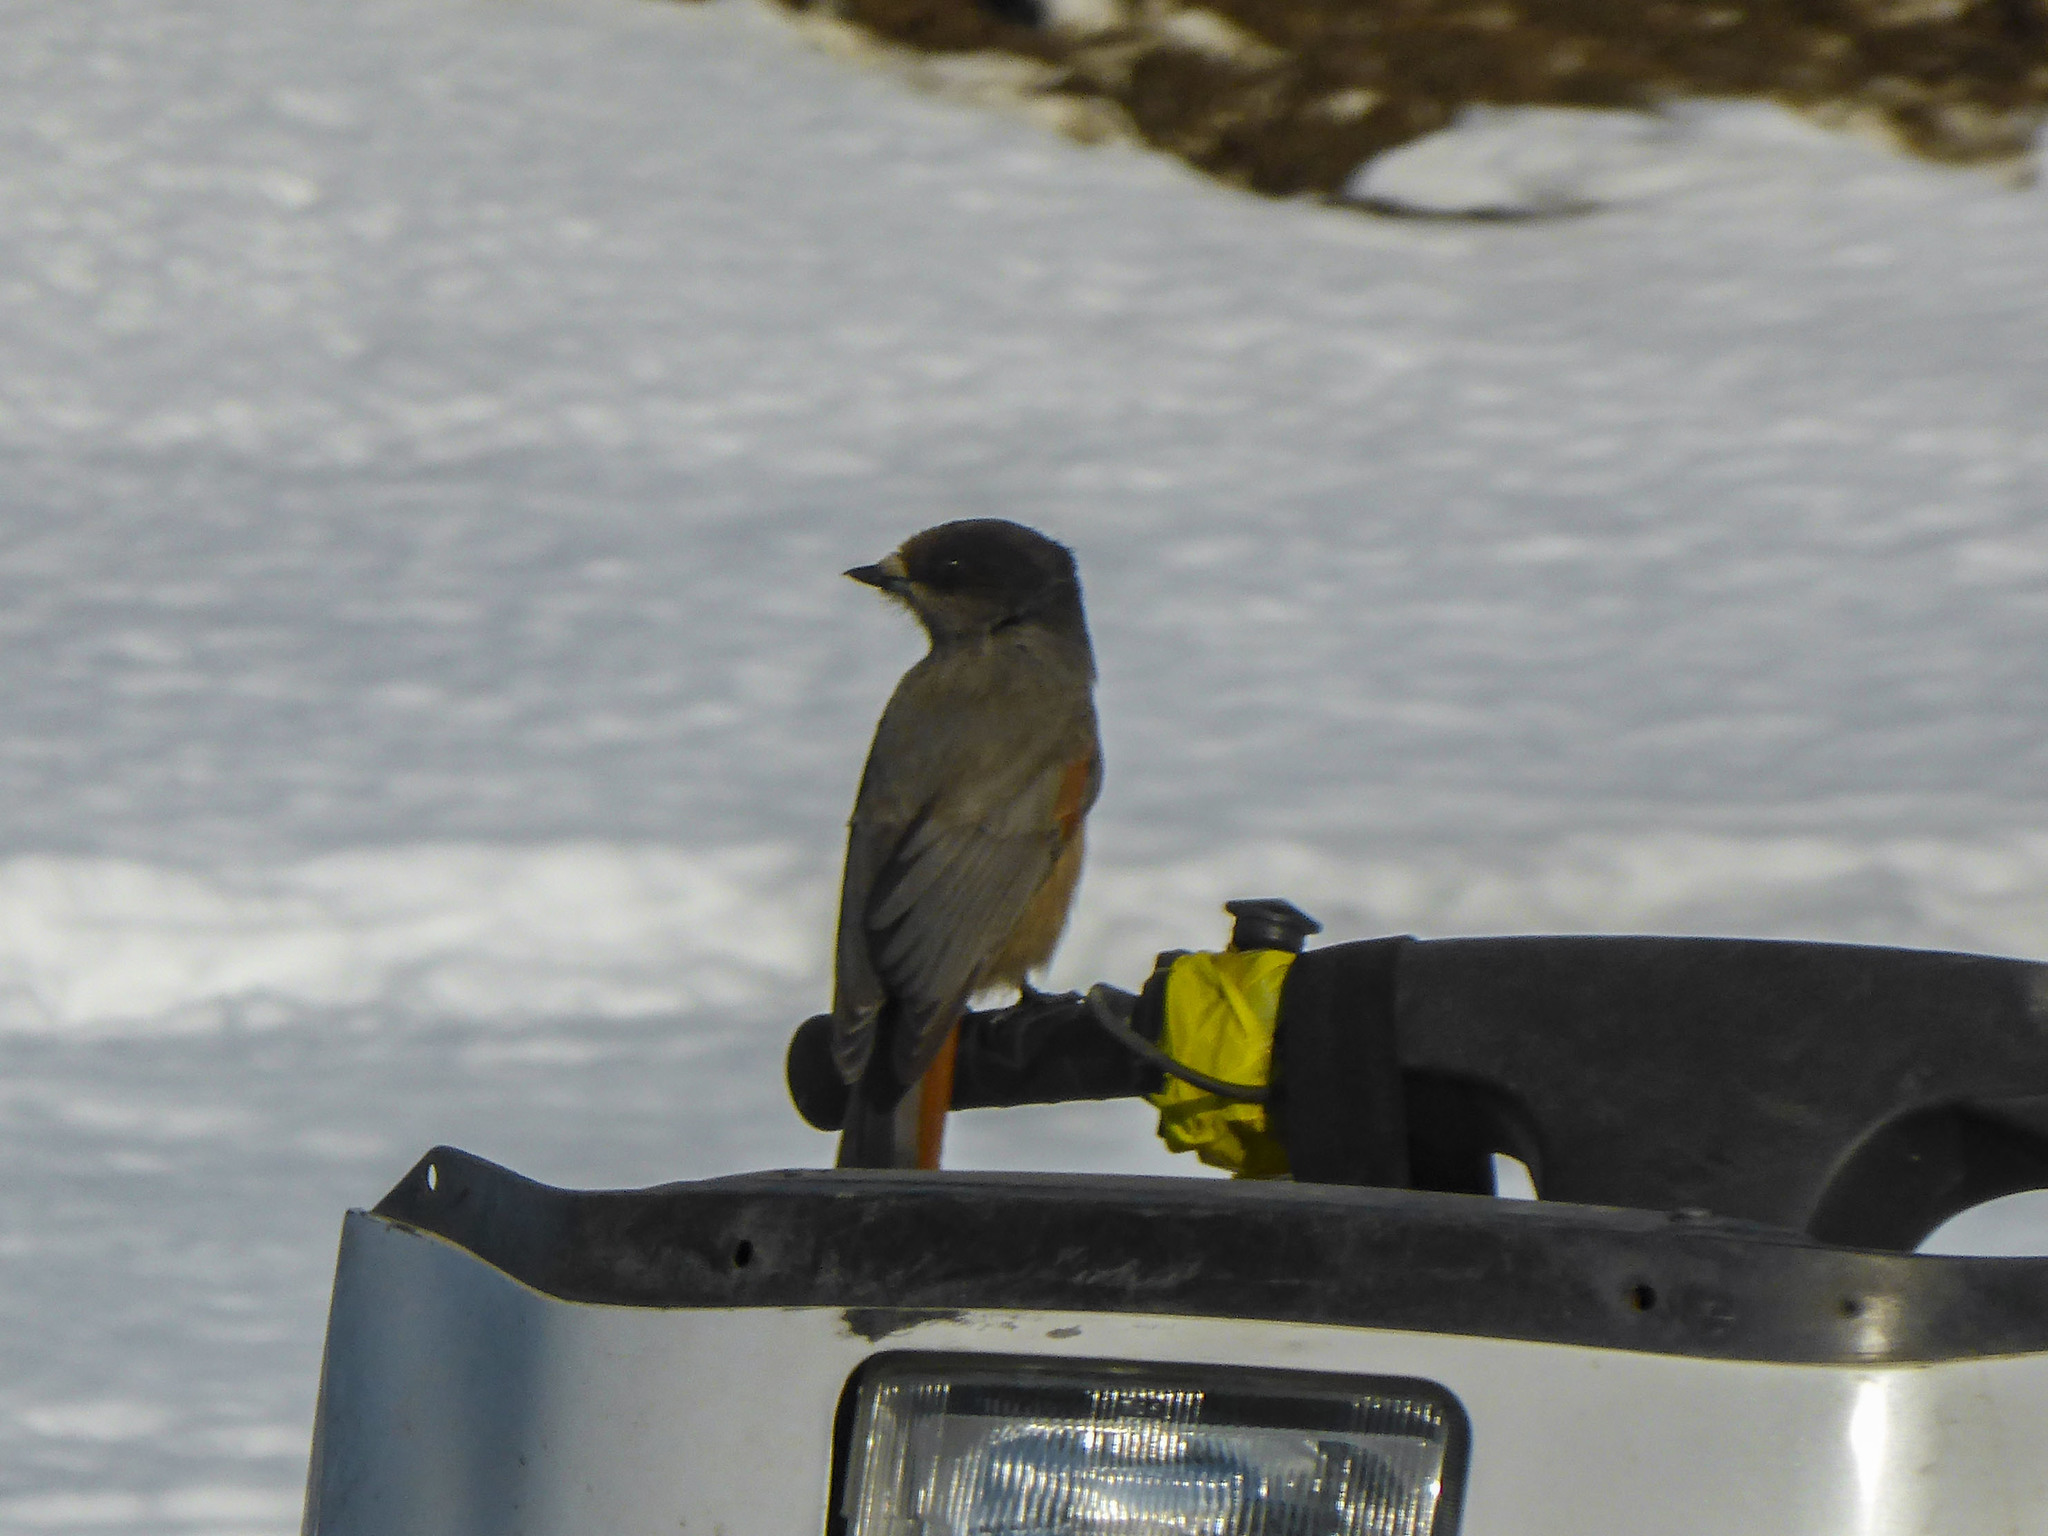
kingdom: Animalia
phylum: Chordata
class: Aves
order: Passeriformes
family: Corvidae
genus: Perisoreus
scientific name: Perisoreus infaustus
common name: Siberian jay
